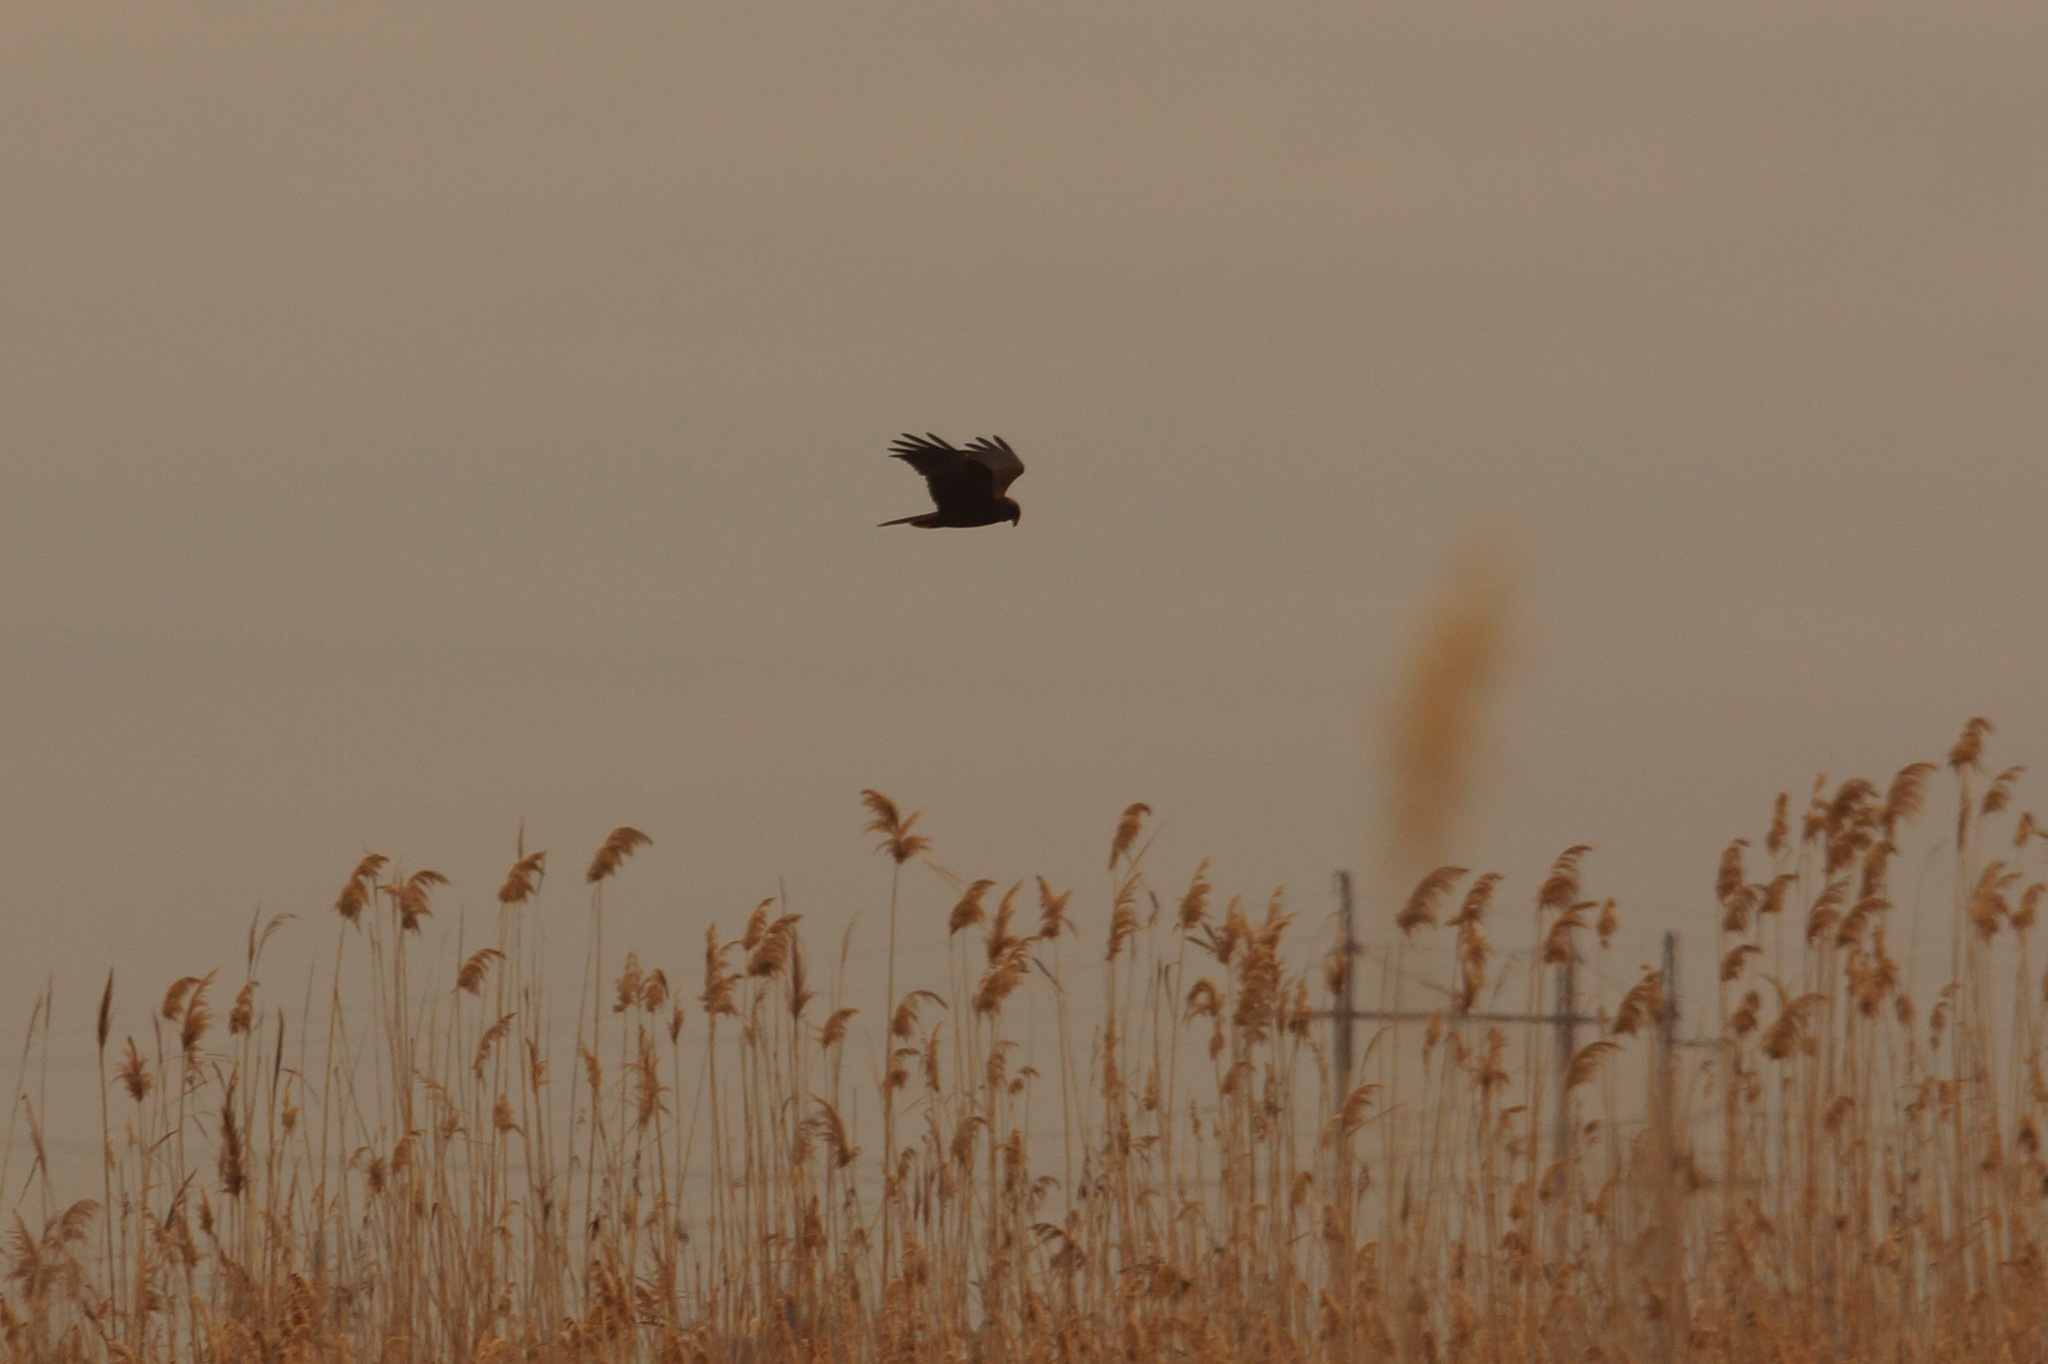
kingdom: Animalia
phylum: Chordata
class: Aves
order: Accipitriformes
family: Accipitridae
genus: Circus
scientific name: Circus aeruginosus
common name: Western marsh harrier
